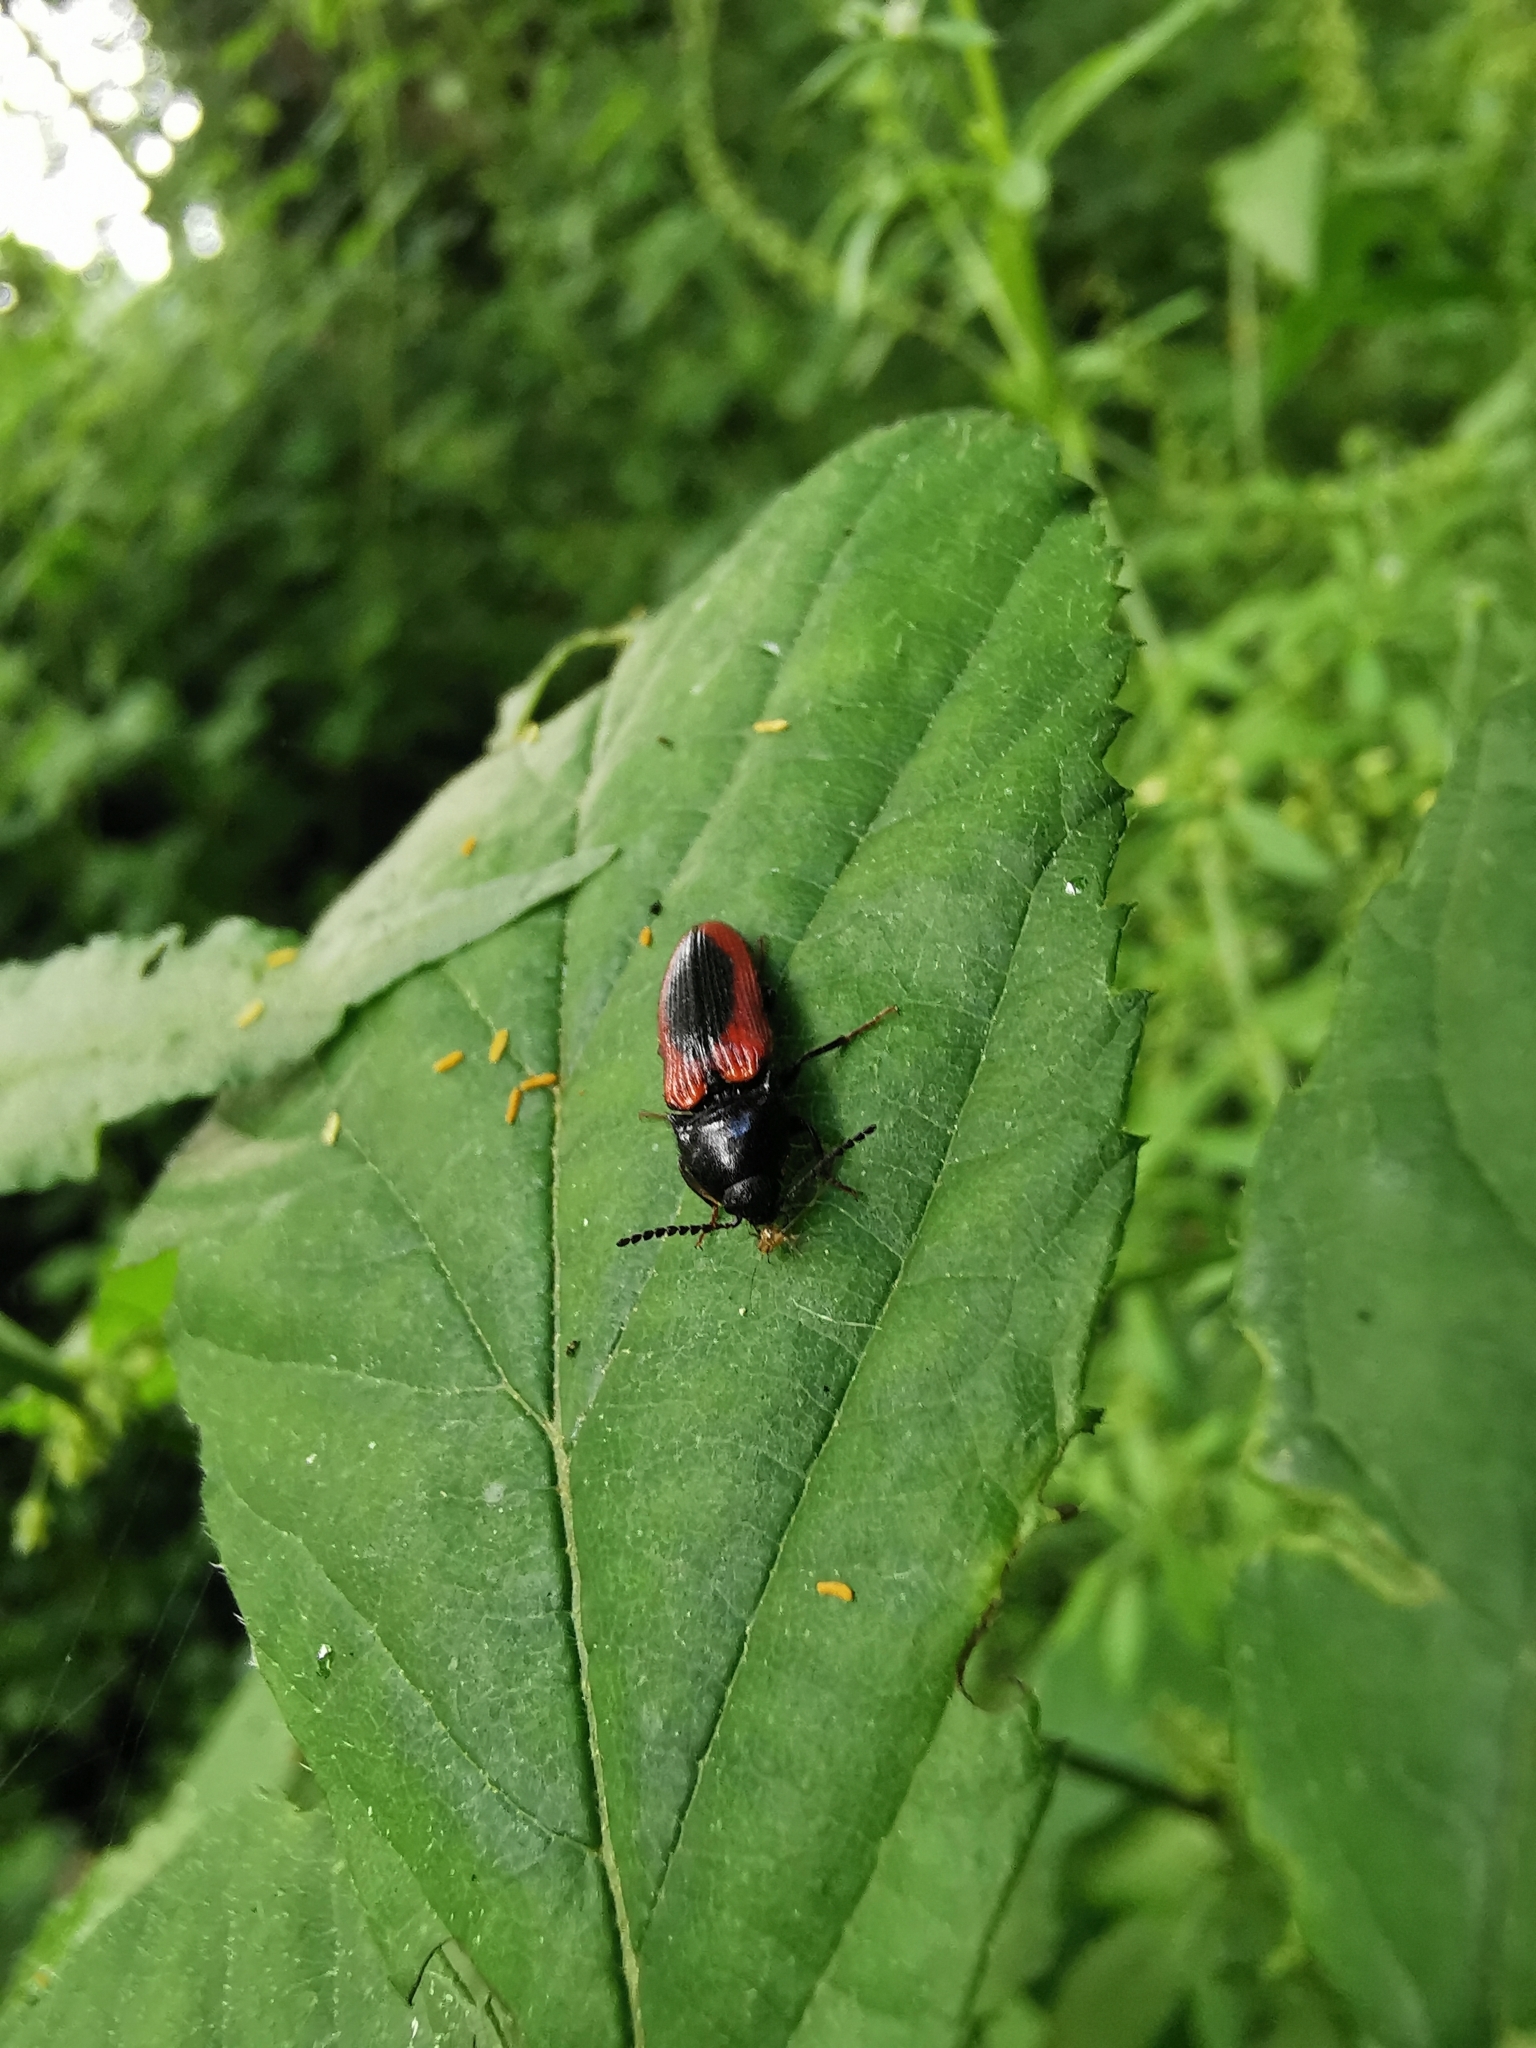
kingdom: Animalia
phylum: Arthropoda
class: Insecta
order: Coleoptera
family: Elateridae
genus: Ampedus
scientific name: Ampedus sanguinolentus
